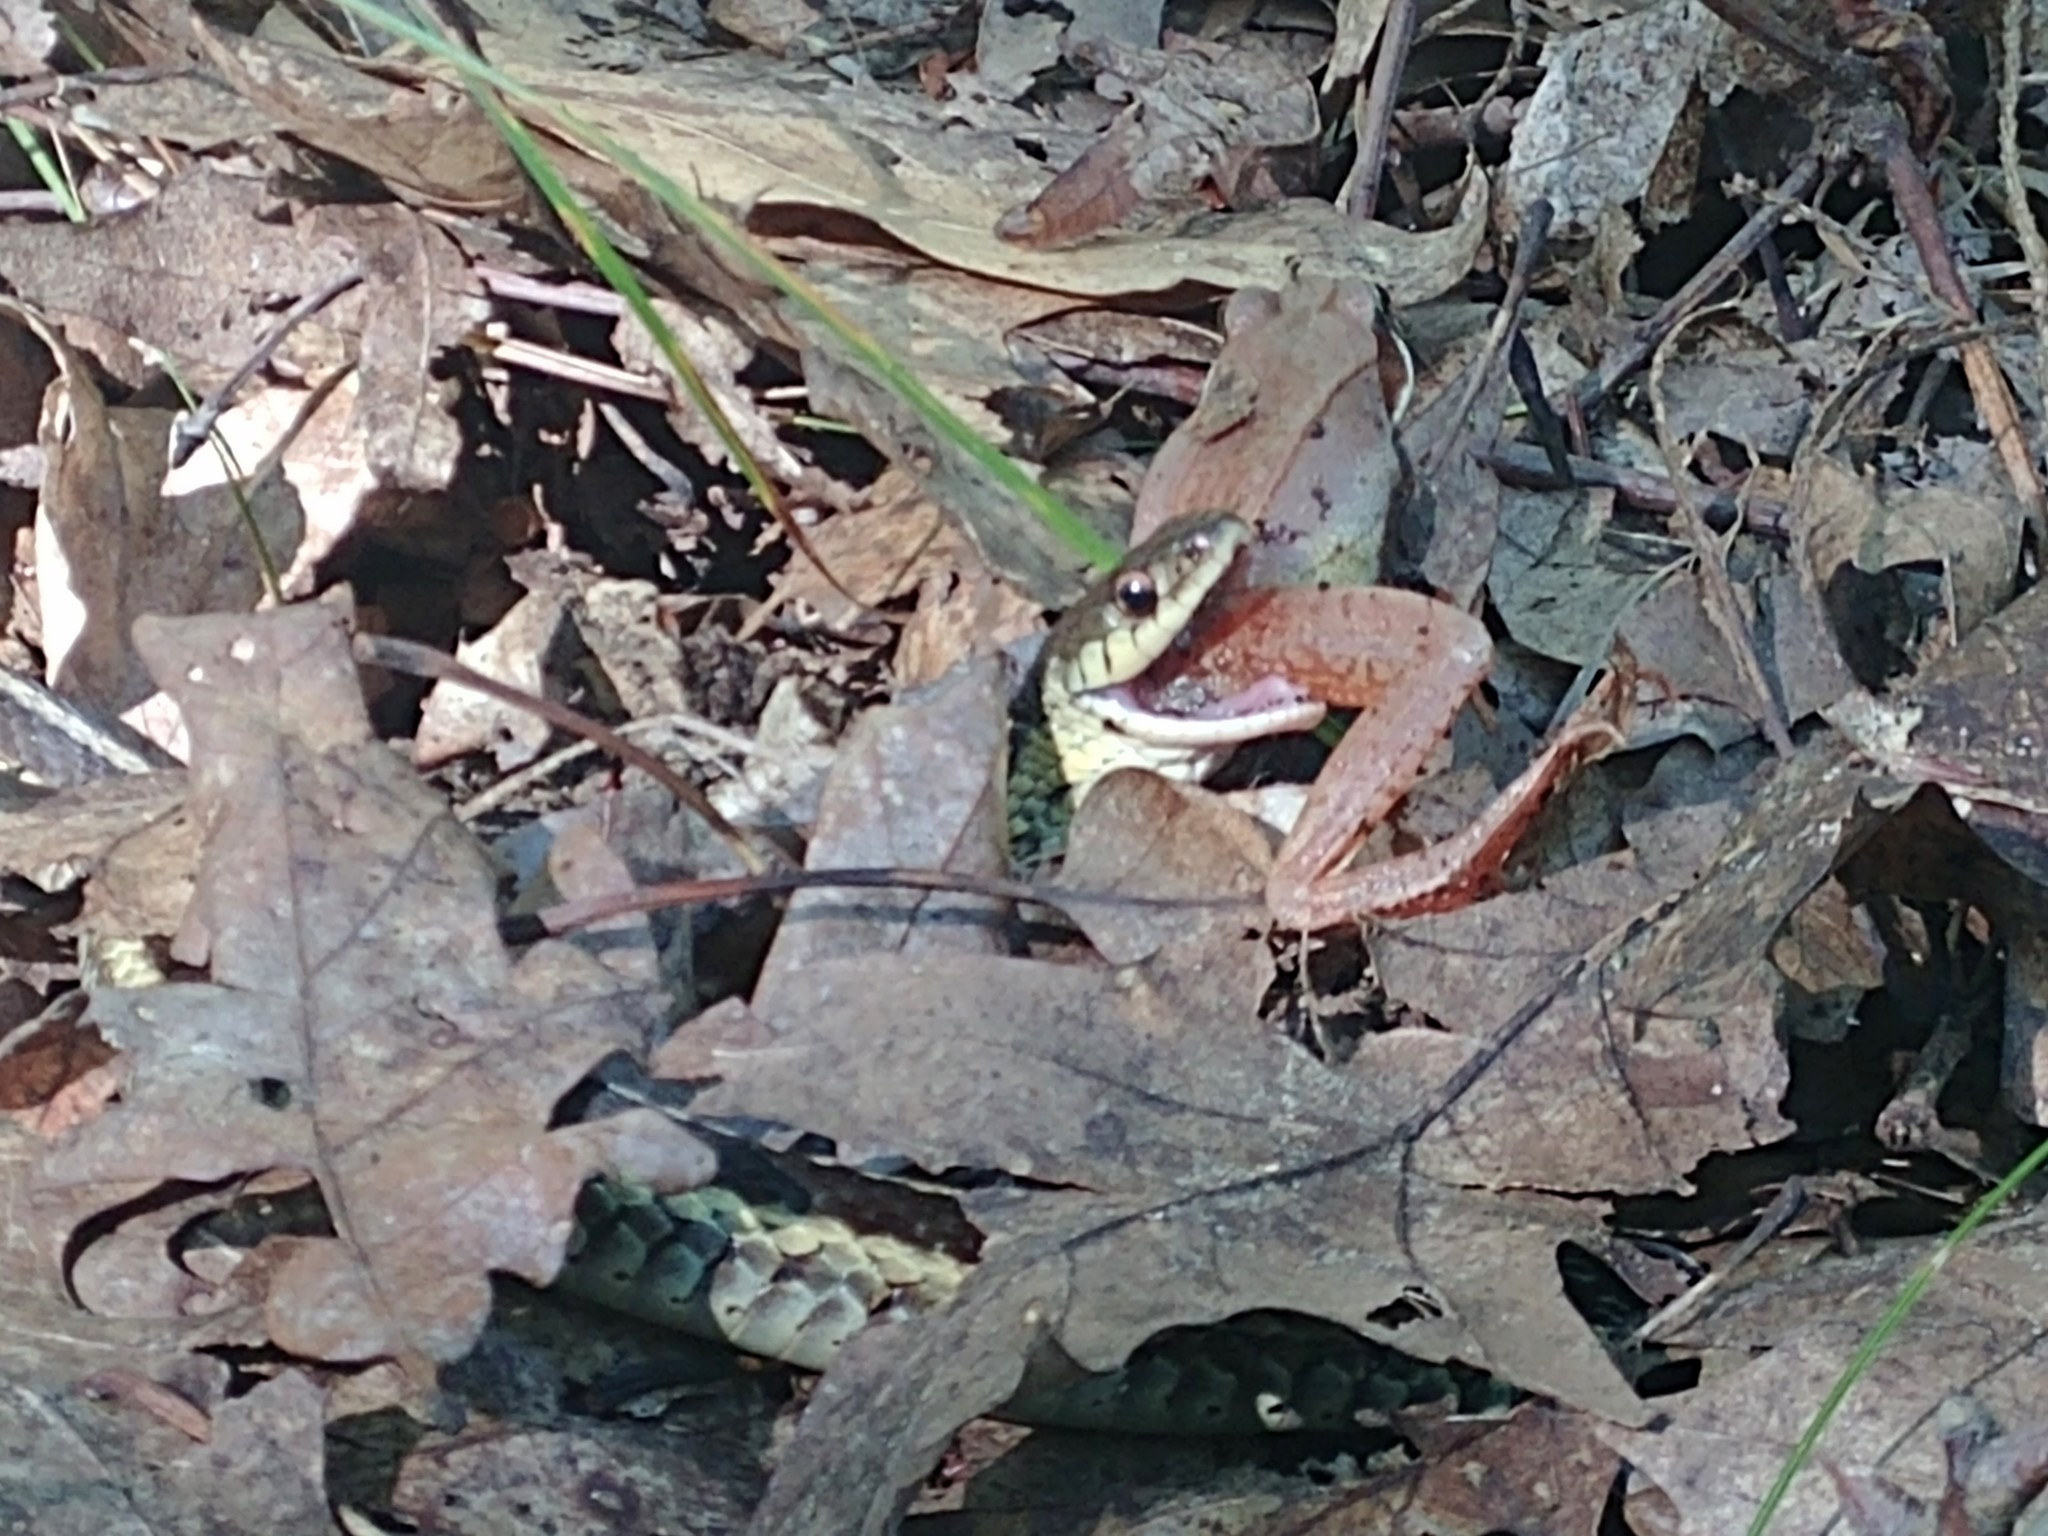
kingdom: Animalia
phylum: Chordata
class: Squamata
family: Colubridae
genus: Thamnophis
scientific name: Thamnophis sirtalis
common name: Common garter snake
